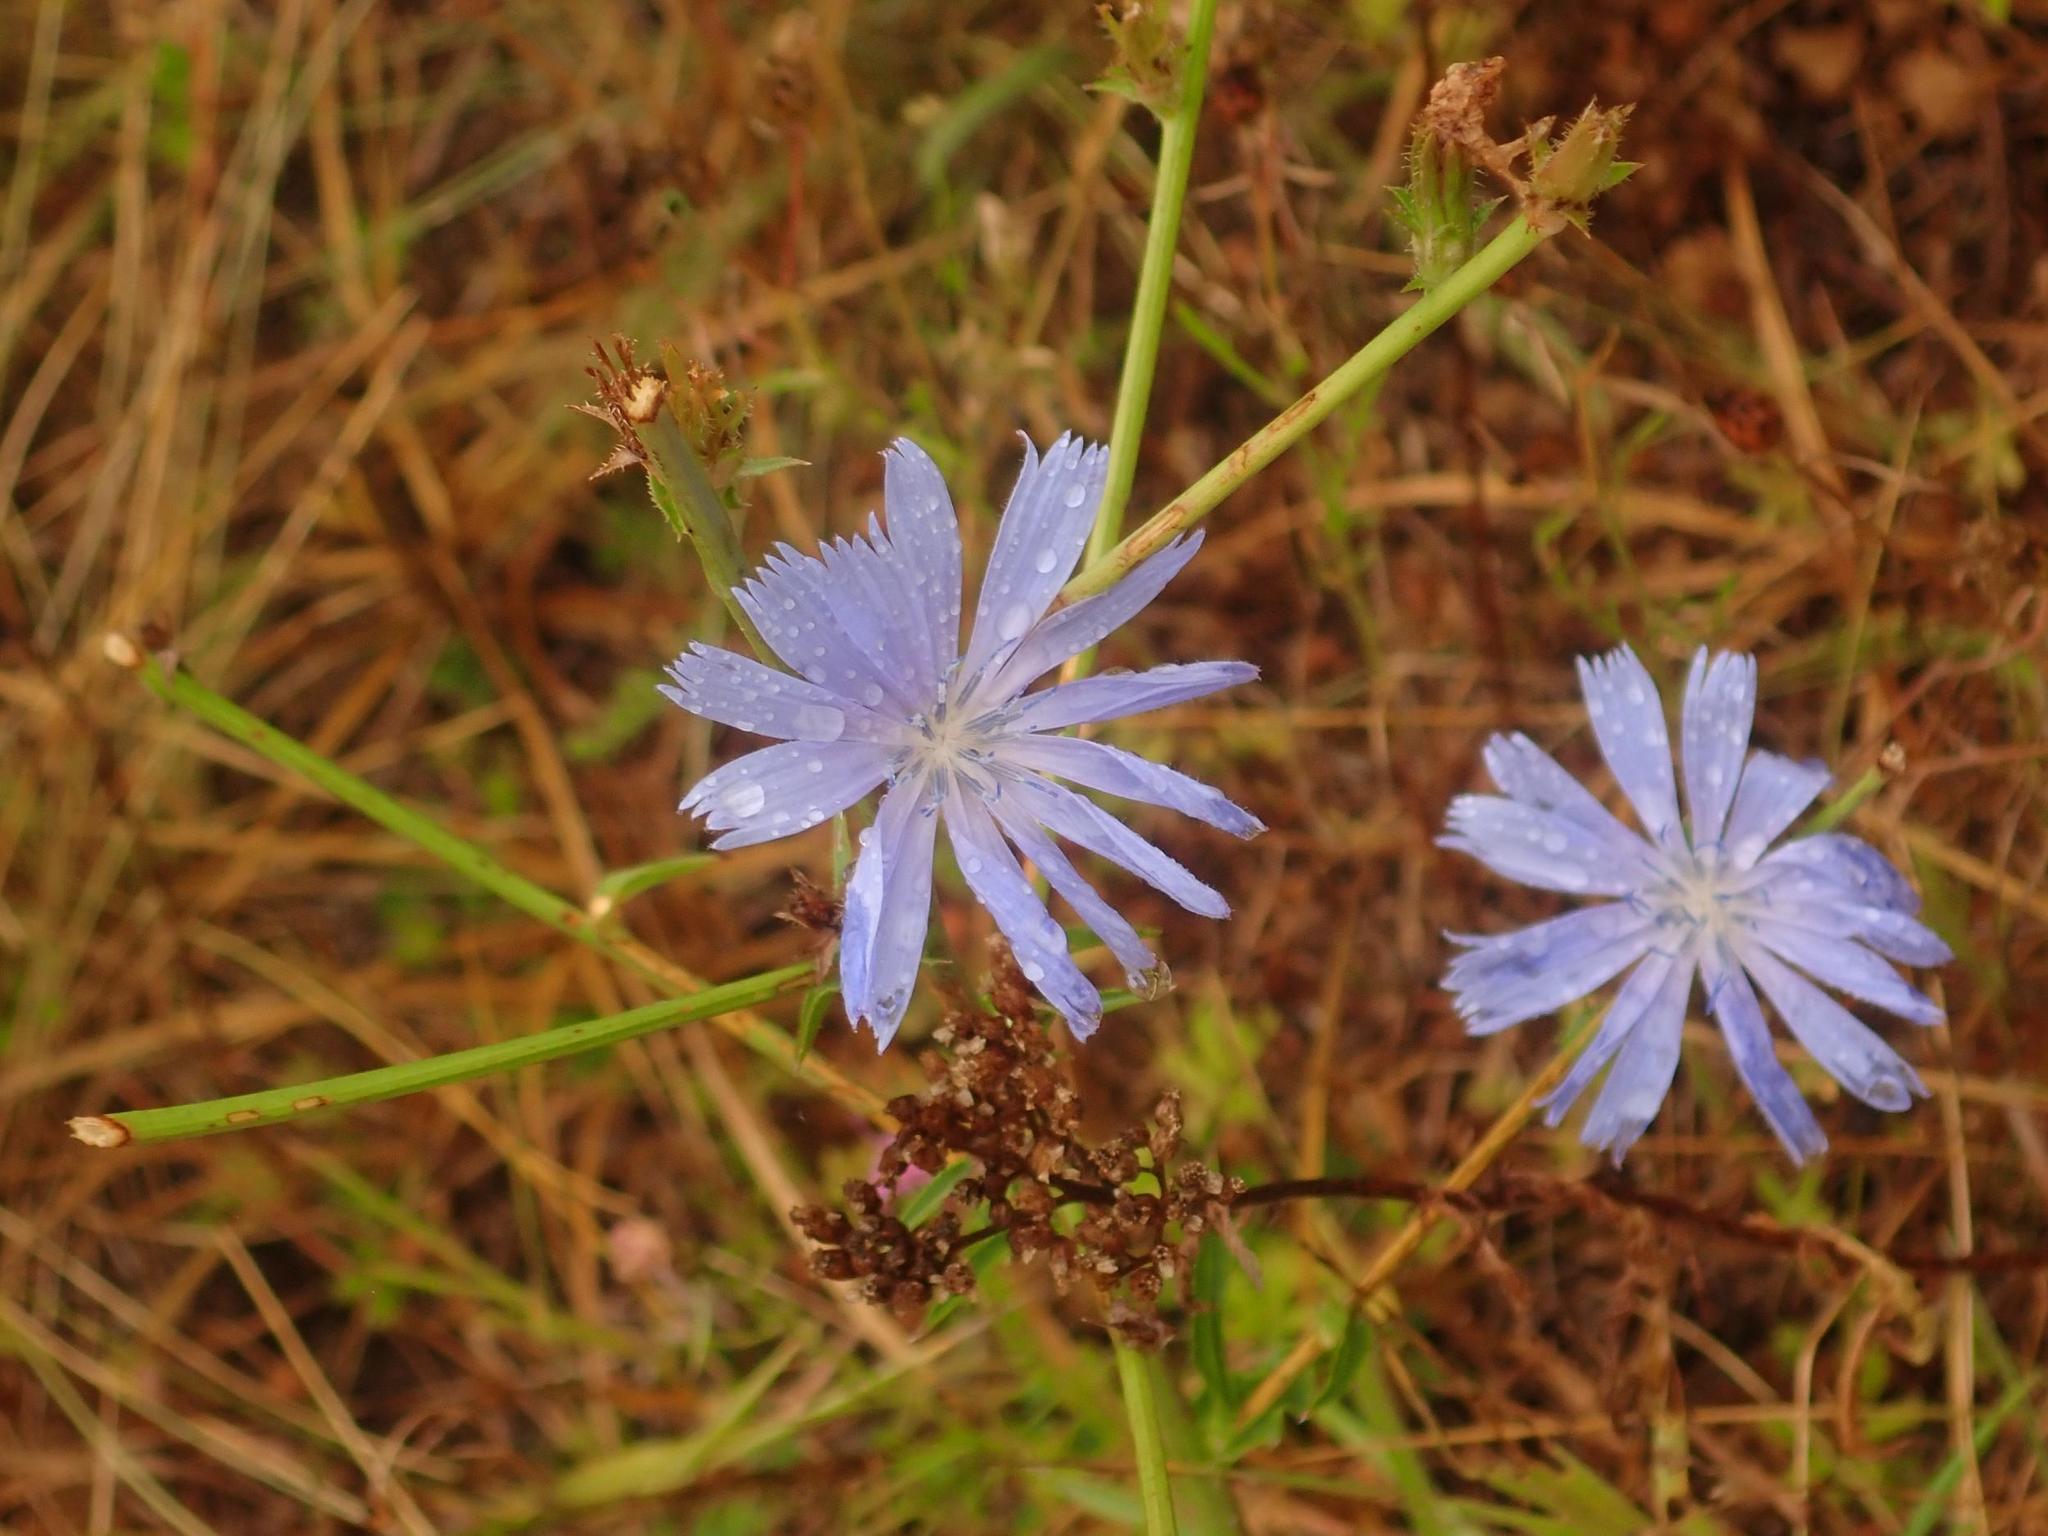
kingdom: Plantae
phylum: Tracheophyta
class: Magnoliopsida
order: Asterales
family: Asteraceae
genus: Cichorium
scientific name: Cichorium intybus
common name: Chicory
